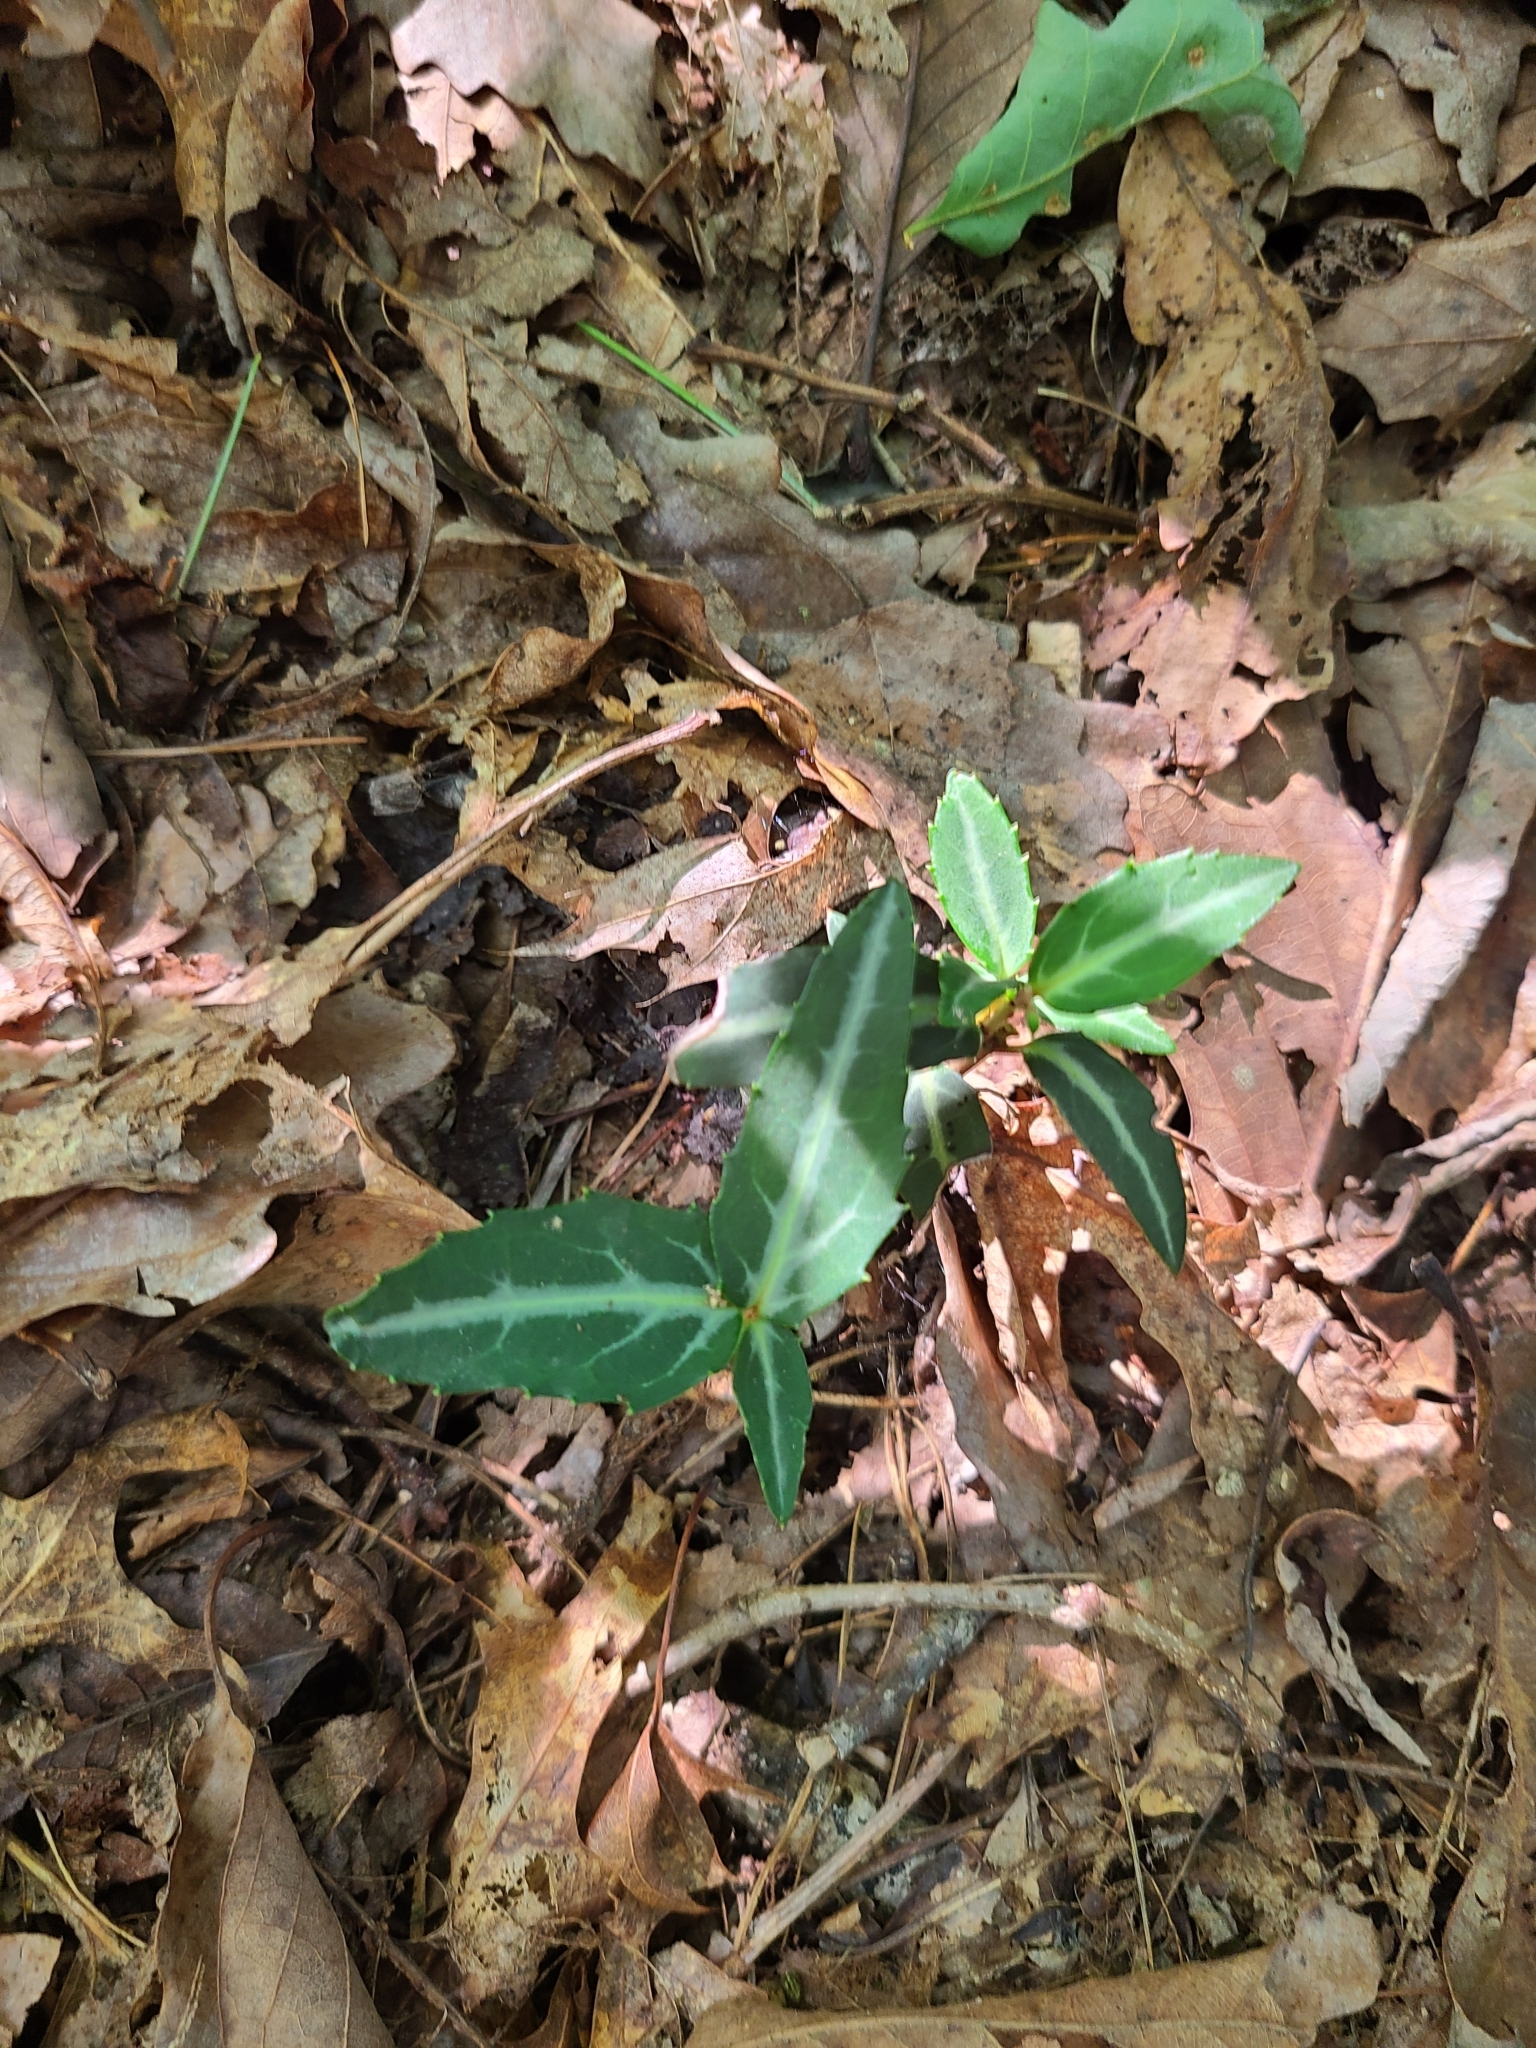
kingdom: Plantae
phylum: Tracheophyta
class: Magnoliopsida
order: Ericales
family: Ericaceae
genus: Chimaphila
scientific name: Chimaphila maculata
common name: Spotted pipsissewa
